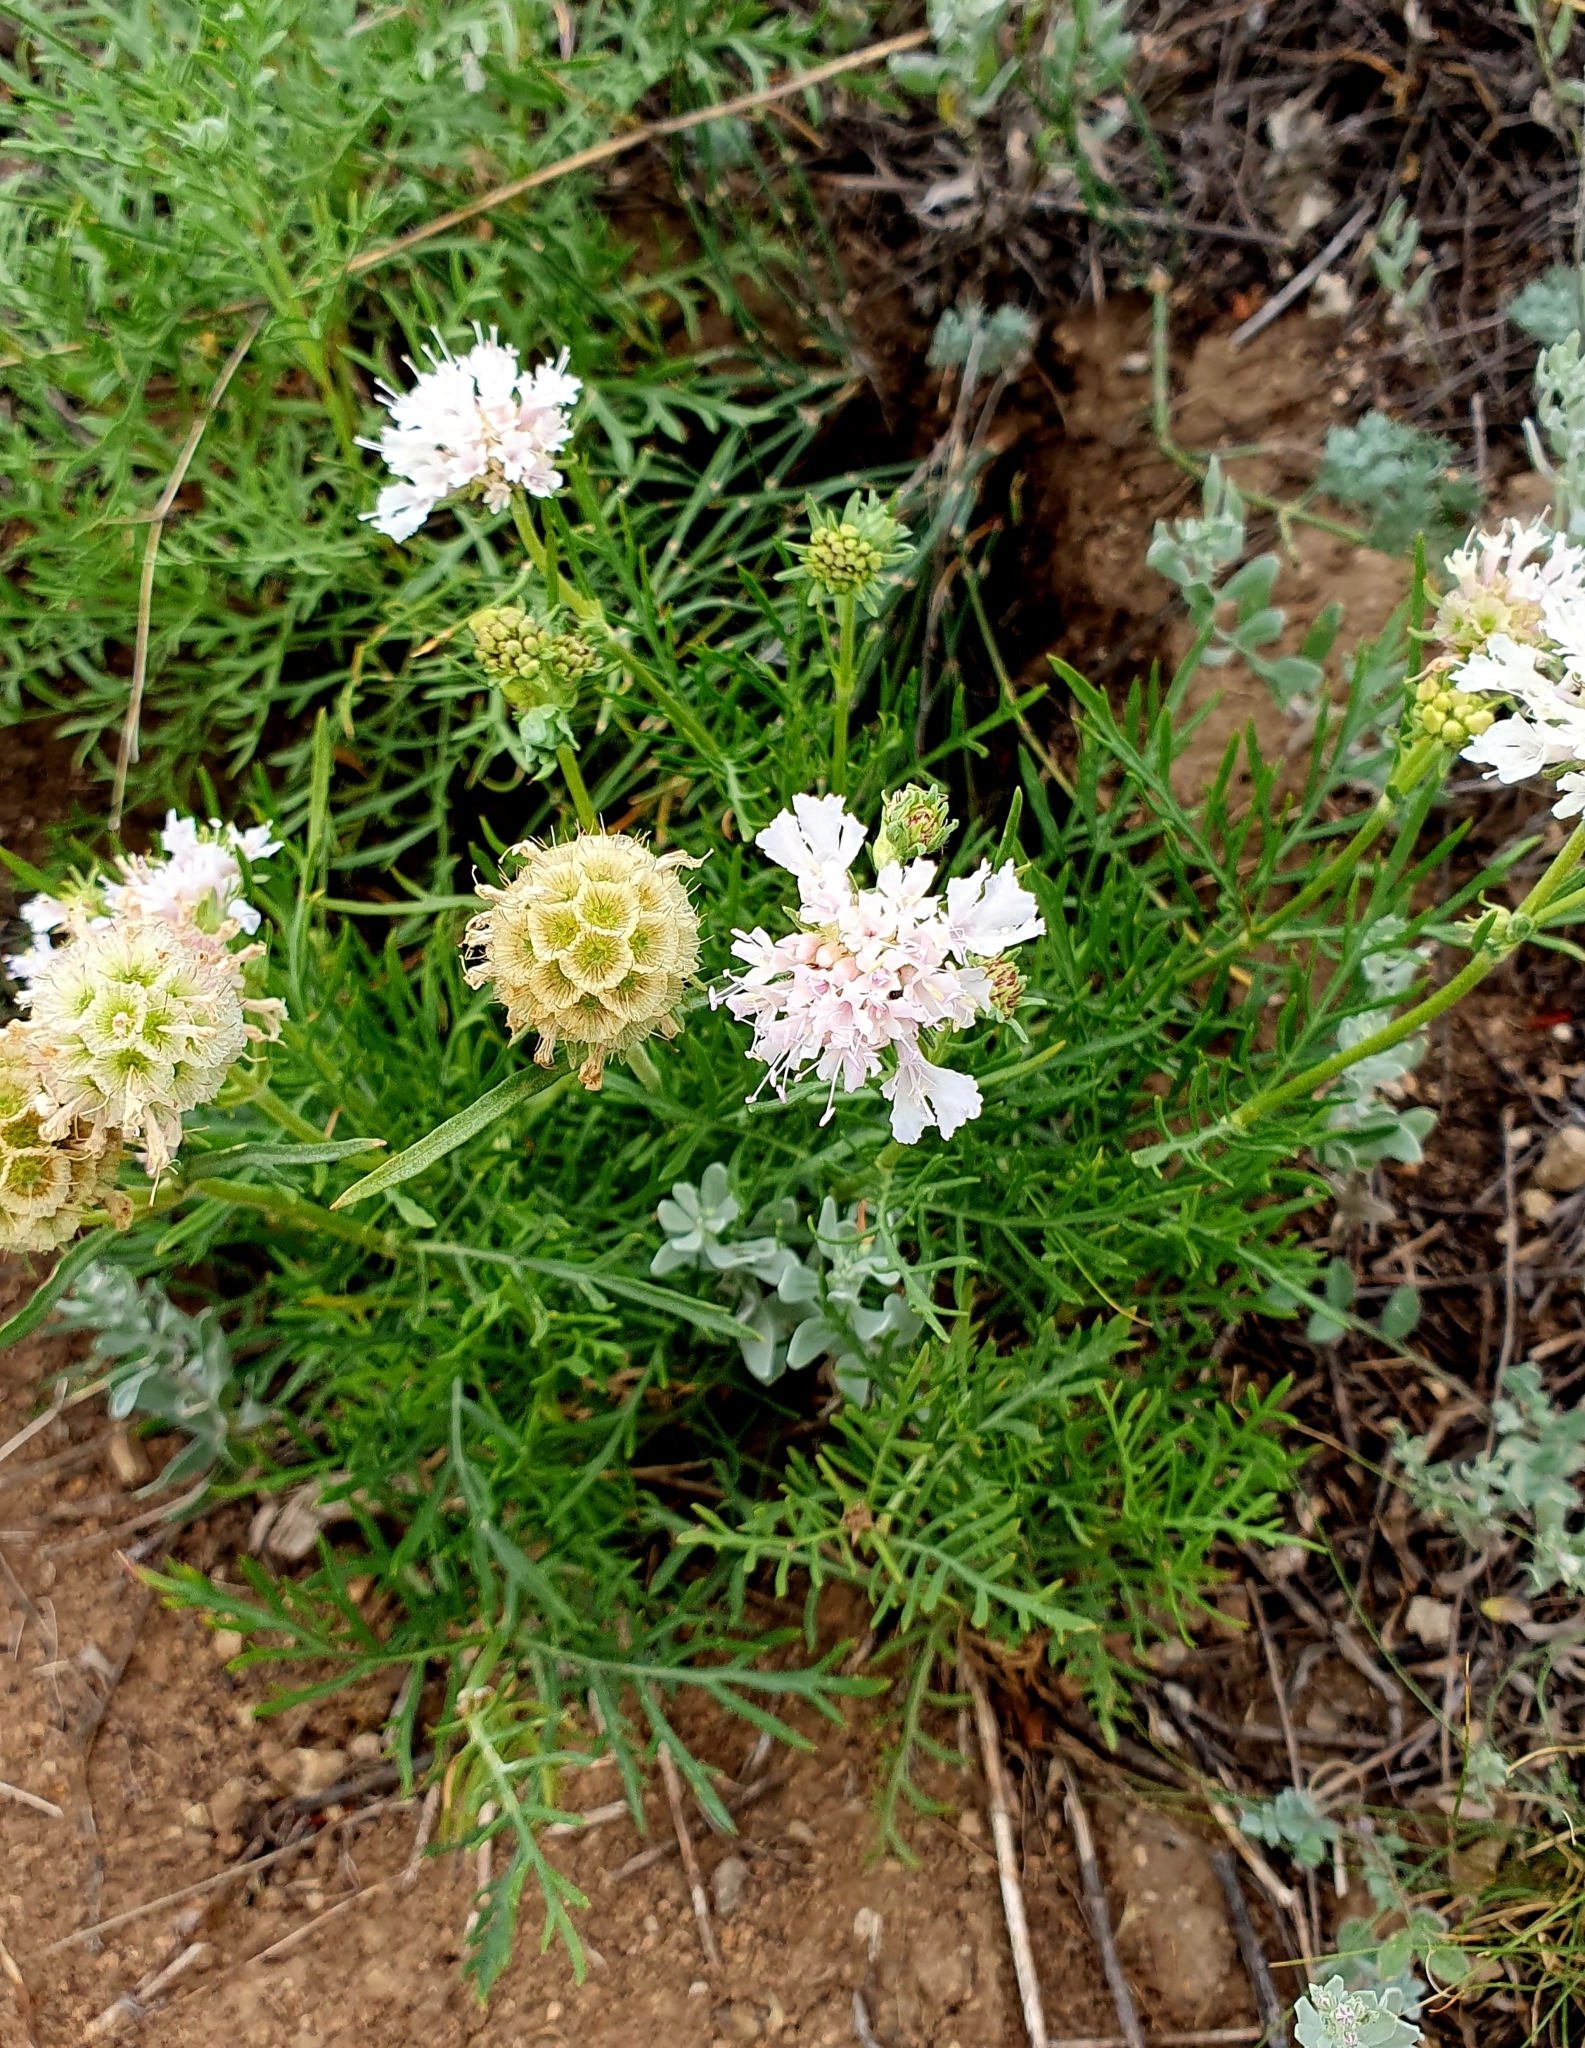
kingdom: Plantae
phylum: Tracheophyta
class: Magnoliopsida
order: Dipsacales
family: Caprifoliaceae
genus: Lomelosia
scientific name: Lomelosia isetensis
